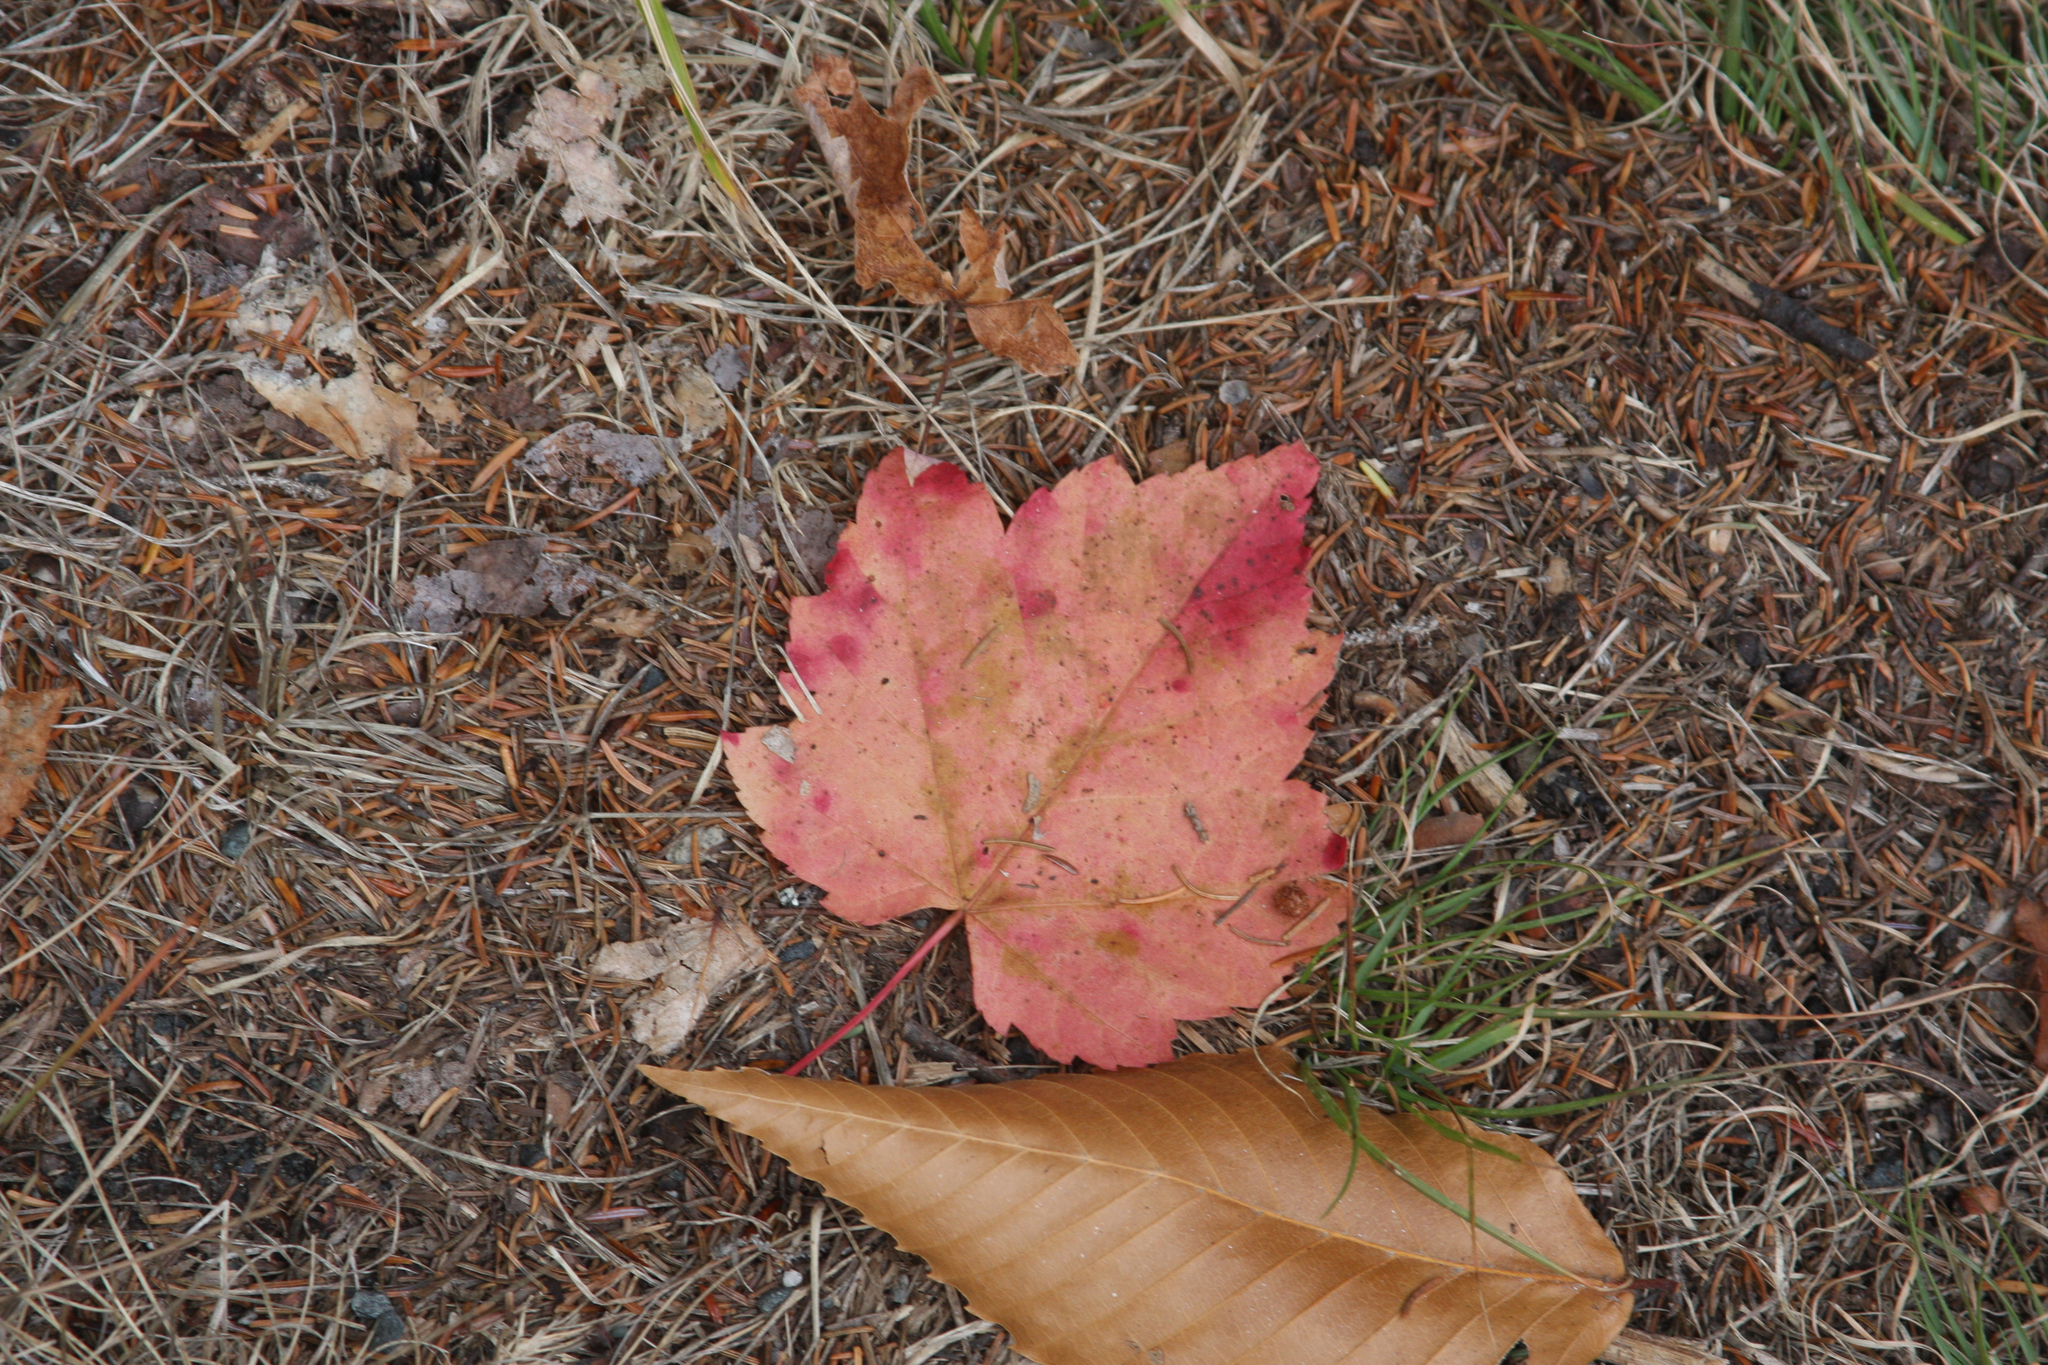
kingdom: Plantae
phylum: Tracheophyta
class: Magnoliopsida
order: Sapindales
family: Sapindaceae
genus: Acer
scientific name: Acer rubrum
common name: Red maple
